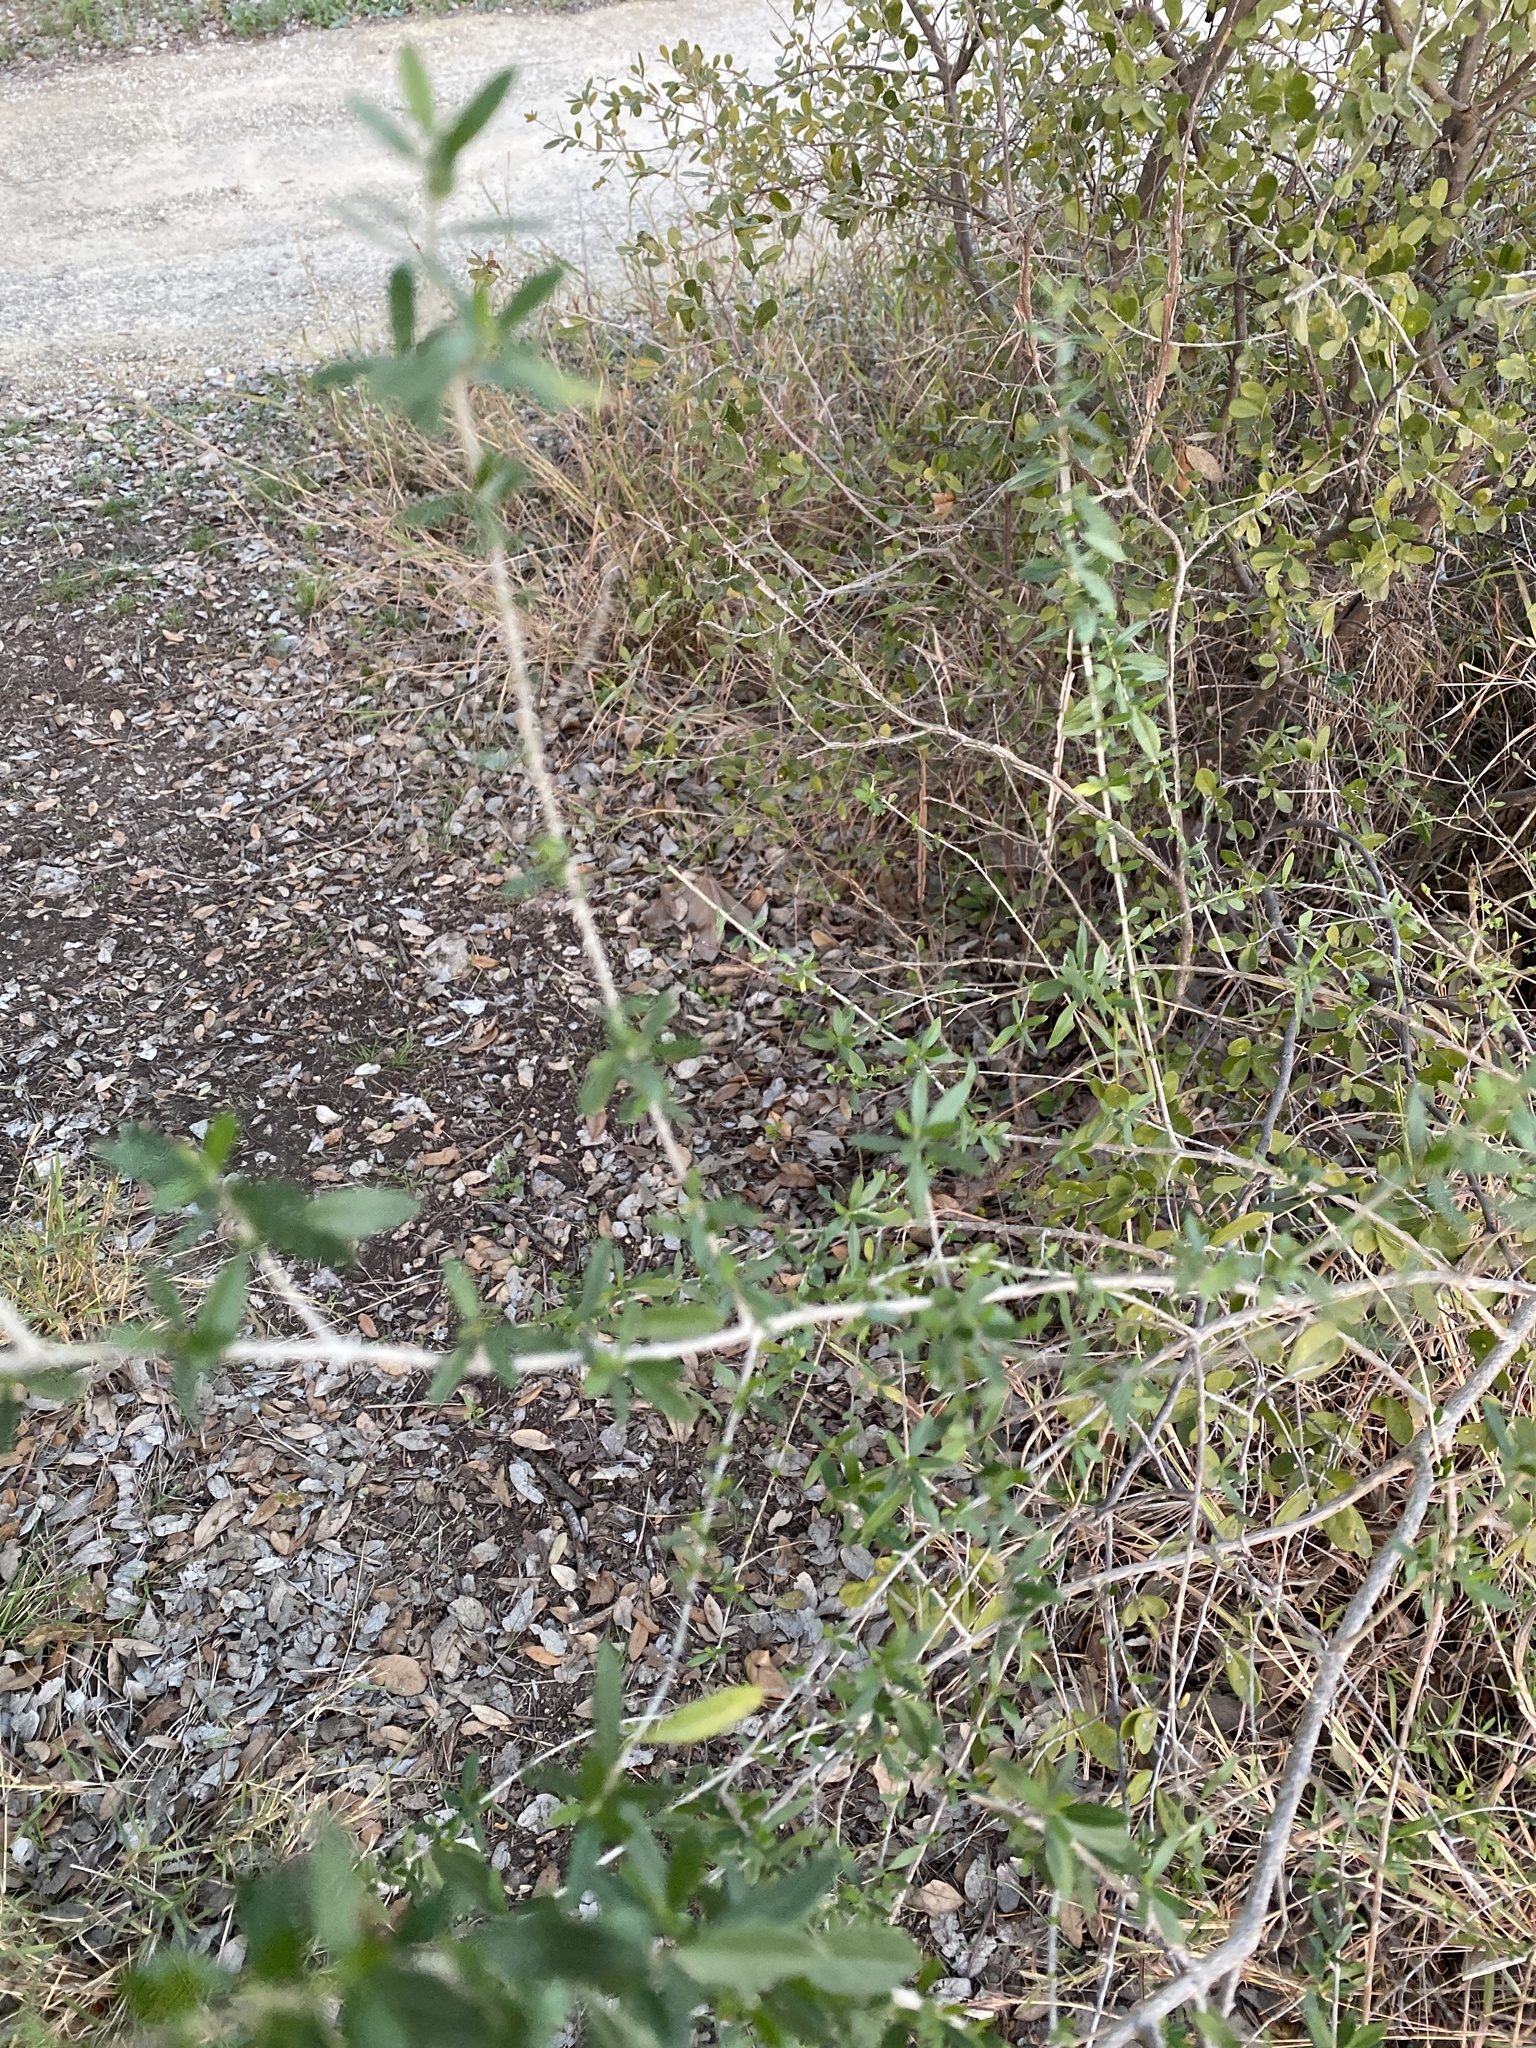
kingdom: Plantae
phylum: Tracheophyta
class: Magnoliopsida
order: Lamiales
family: Verbenaceae
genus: Aloysia
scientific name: Aloysia gratissima
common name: Common bee-brush
